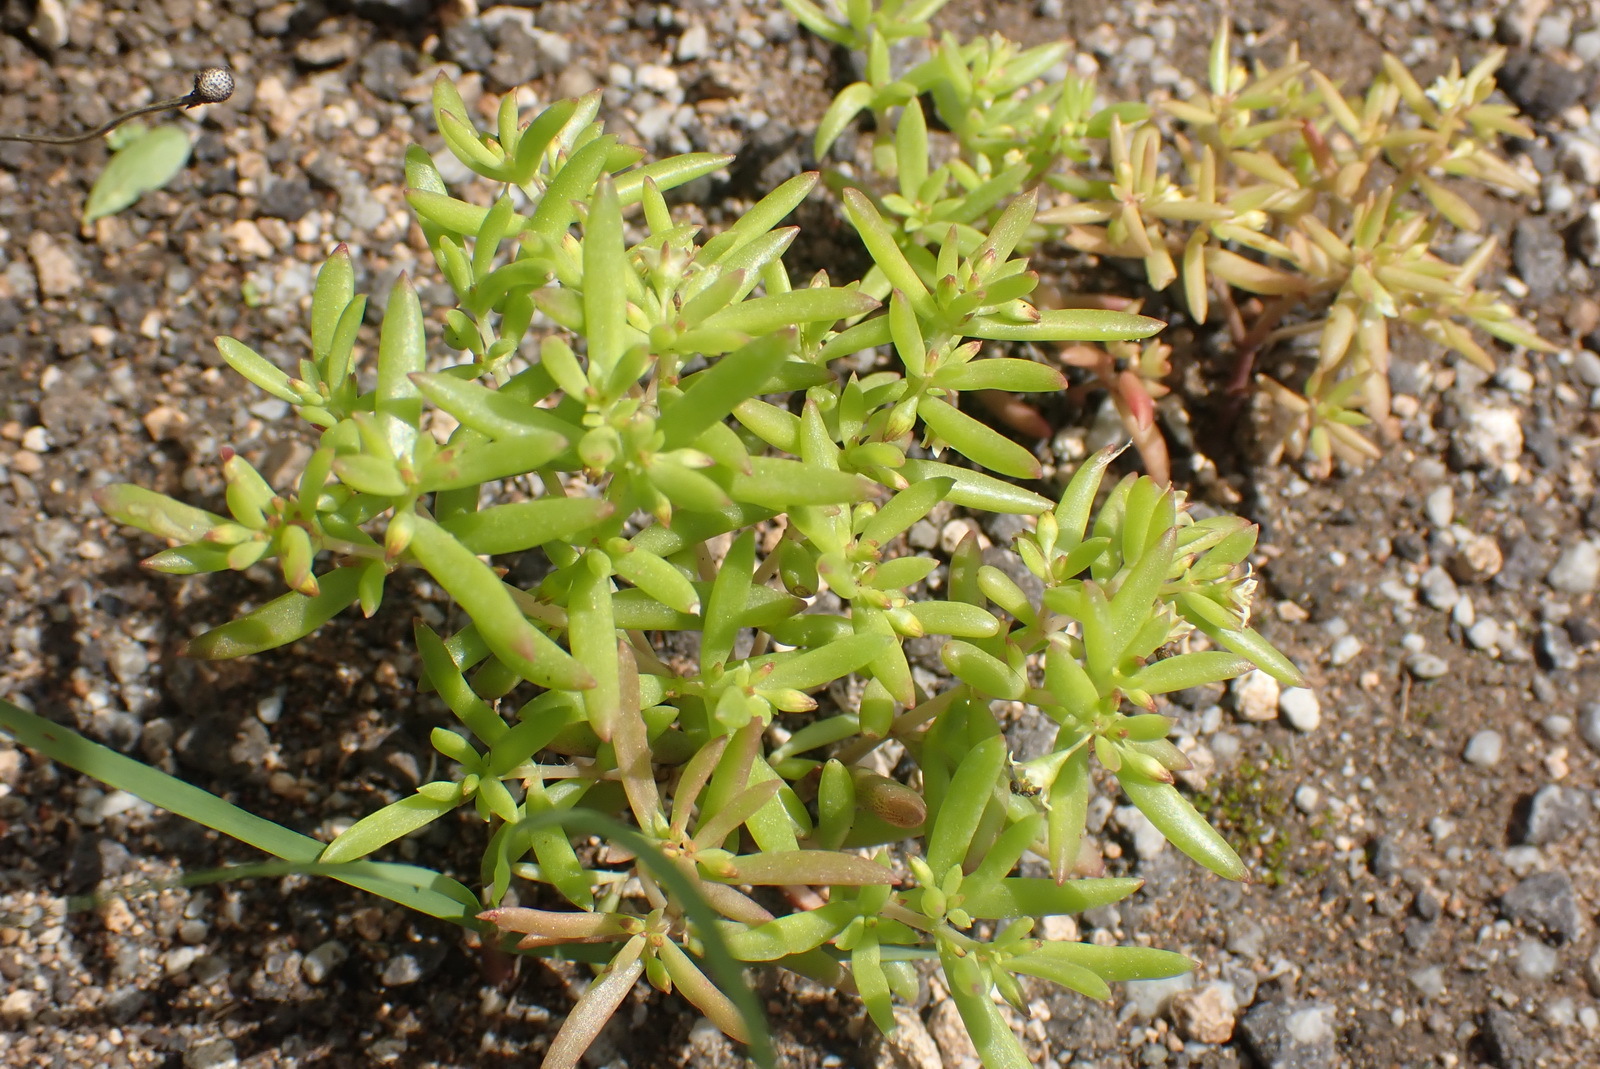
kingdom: Plantae
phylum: Tracheophyta
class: Magnoliopsida
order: Saxifragales
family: Crassulaceae
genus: Crassula
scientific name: Crassula expansa
